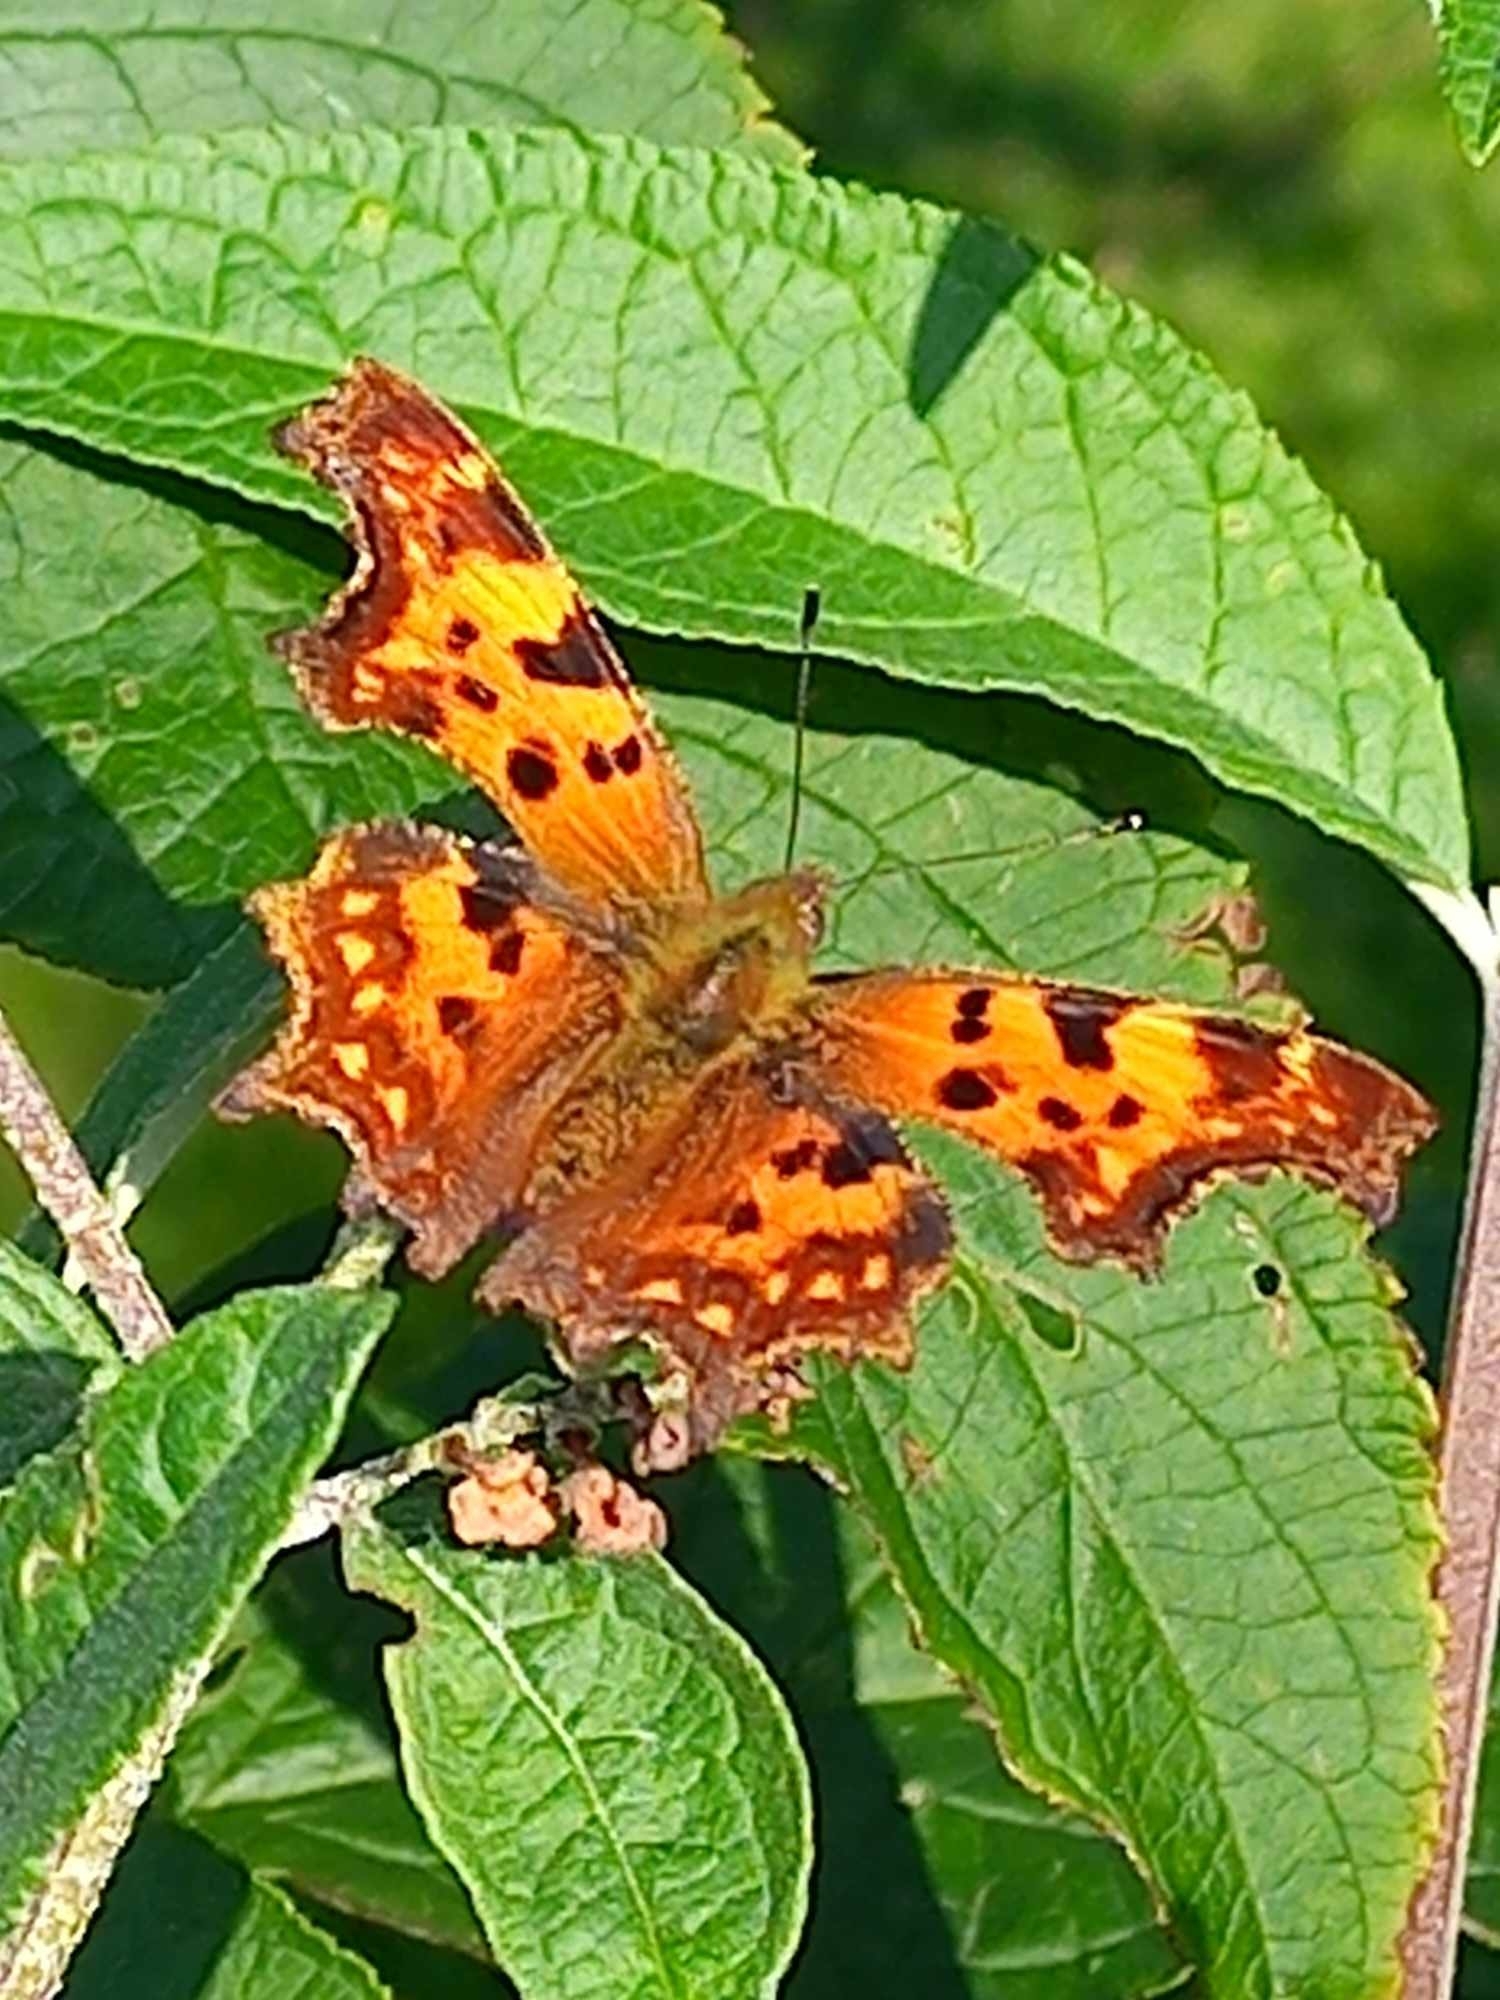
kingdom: Animalia
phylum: Arthropoda
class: Insecta
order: Lepidoptera
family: Nymphalidae
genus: Polygonia
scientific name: Polygonia c-album
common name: Comma
